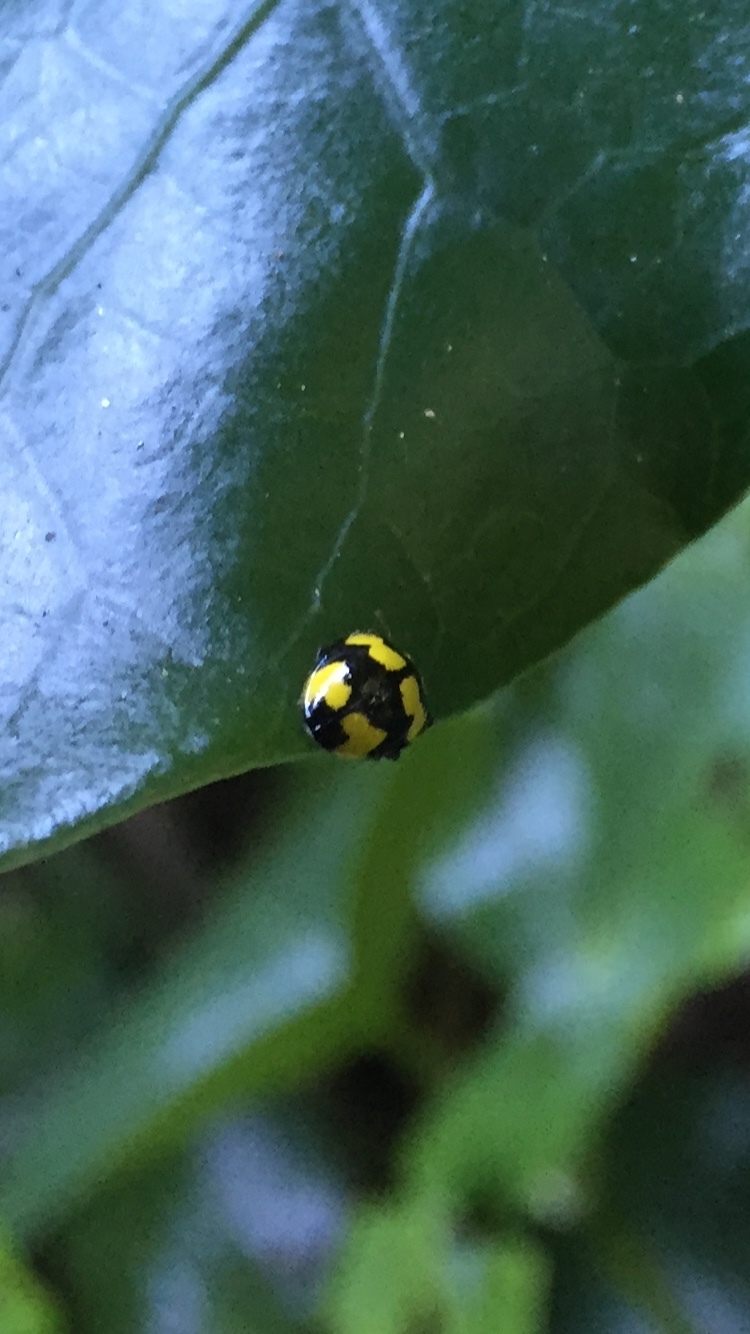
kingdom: Animalia
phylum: Arthropoda
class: Insecta
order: Coleoptera
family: Coccinellidae
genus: Illeis
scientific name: Illeis galbula
